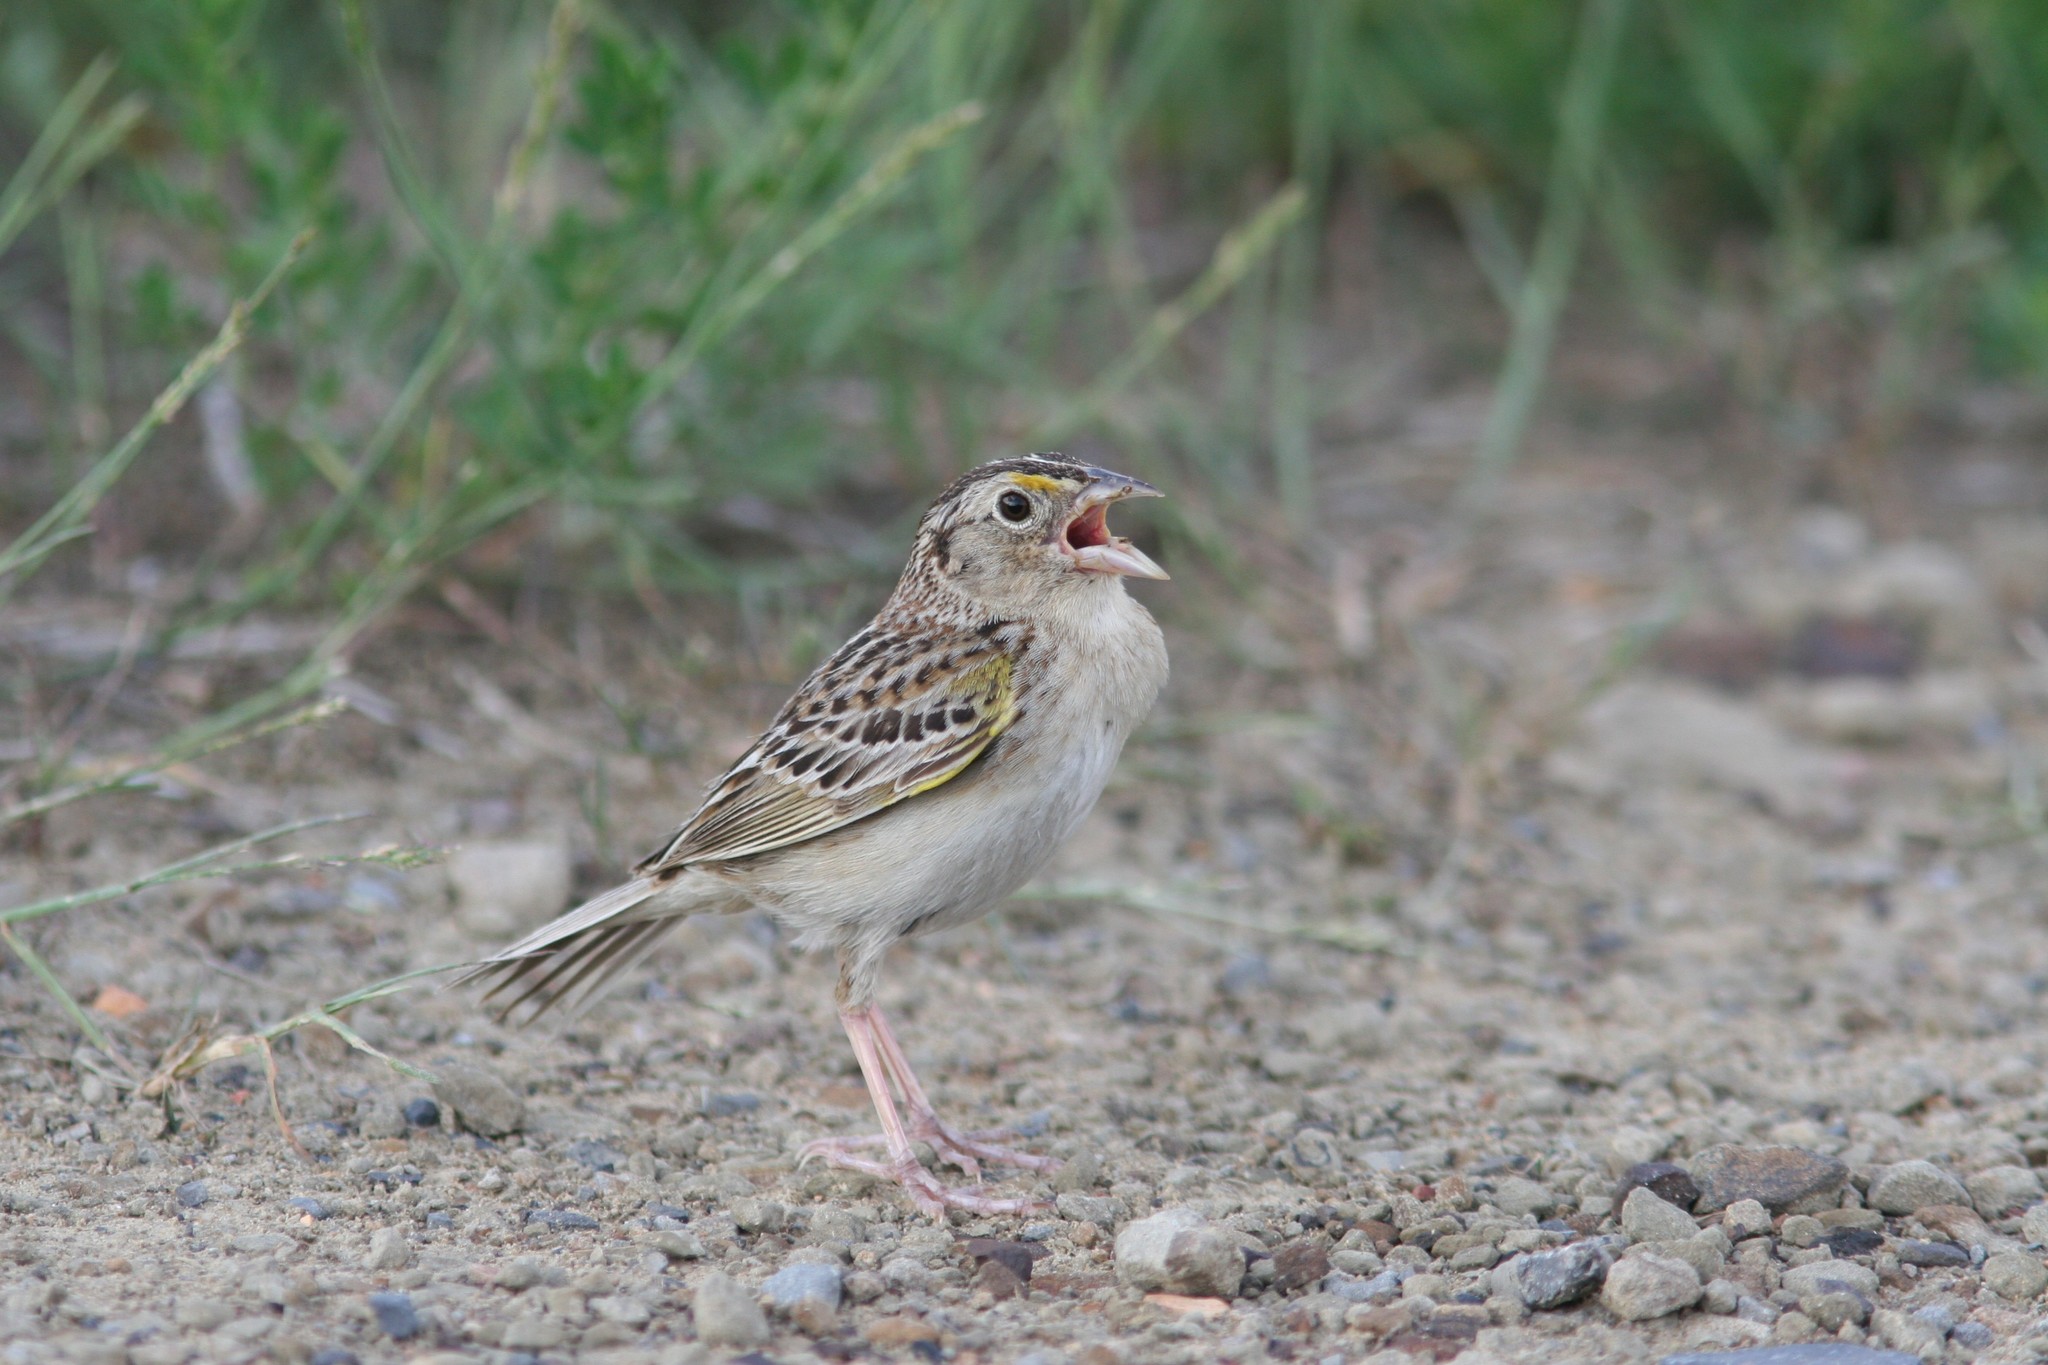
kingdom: Animalia
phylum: Chordata
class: Aves
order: Passeriformes
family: Passerellidae
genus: Ammodramus
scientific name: Ammodramus savannarum
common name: Grasshopper sparrow
